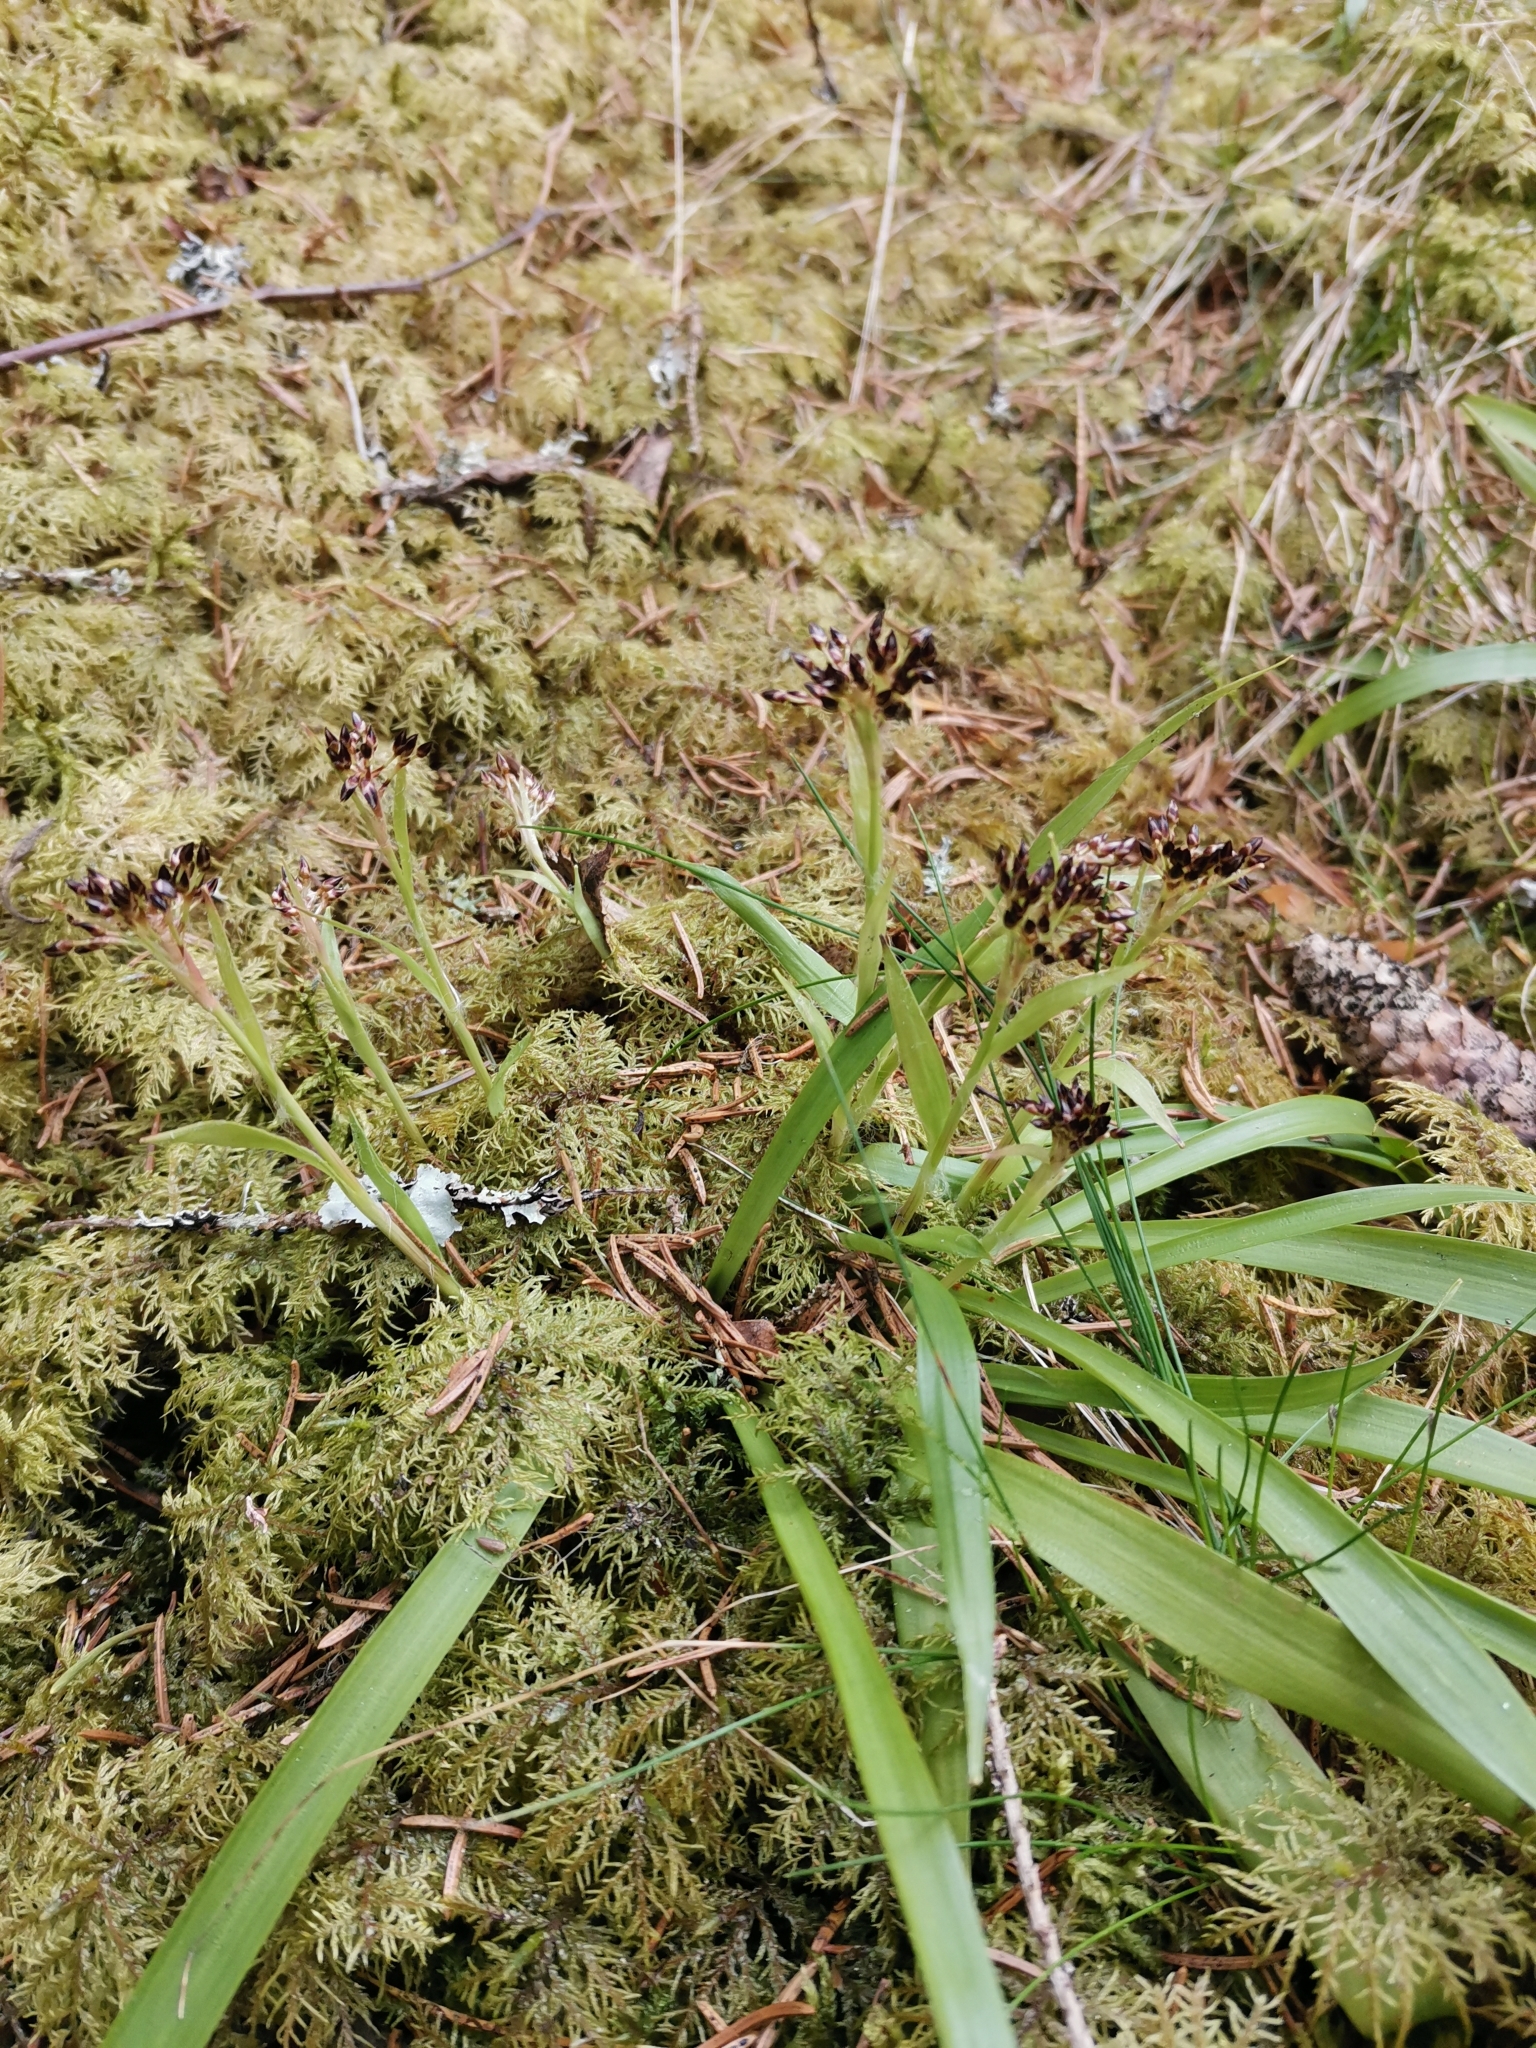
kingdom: Plantae
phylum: Tracheophyta
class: Liliopsida
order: Poales
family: Juncaceae
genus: Luzula
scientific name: Luzula pilosa
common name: Hairy wood-rush
